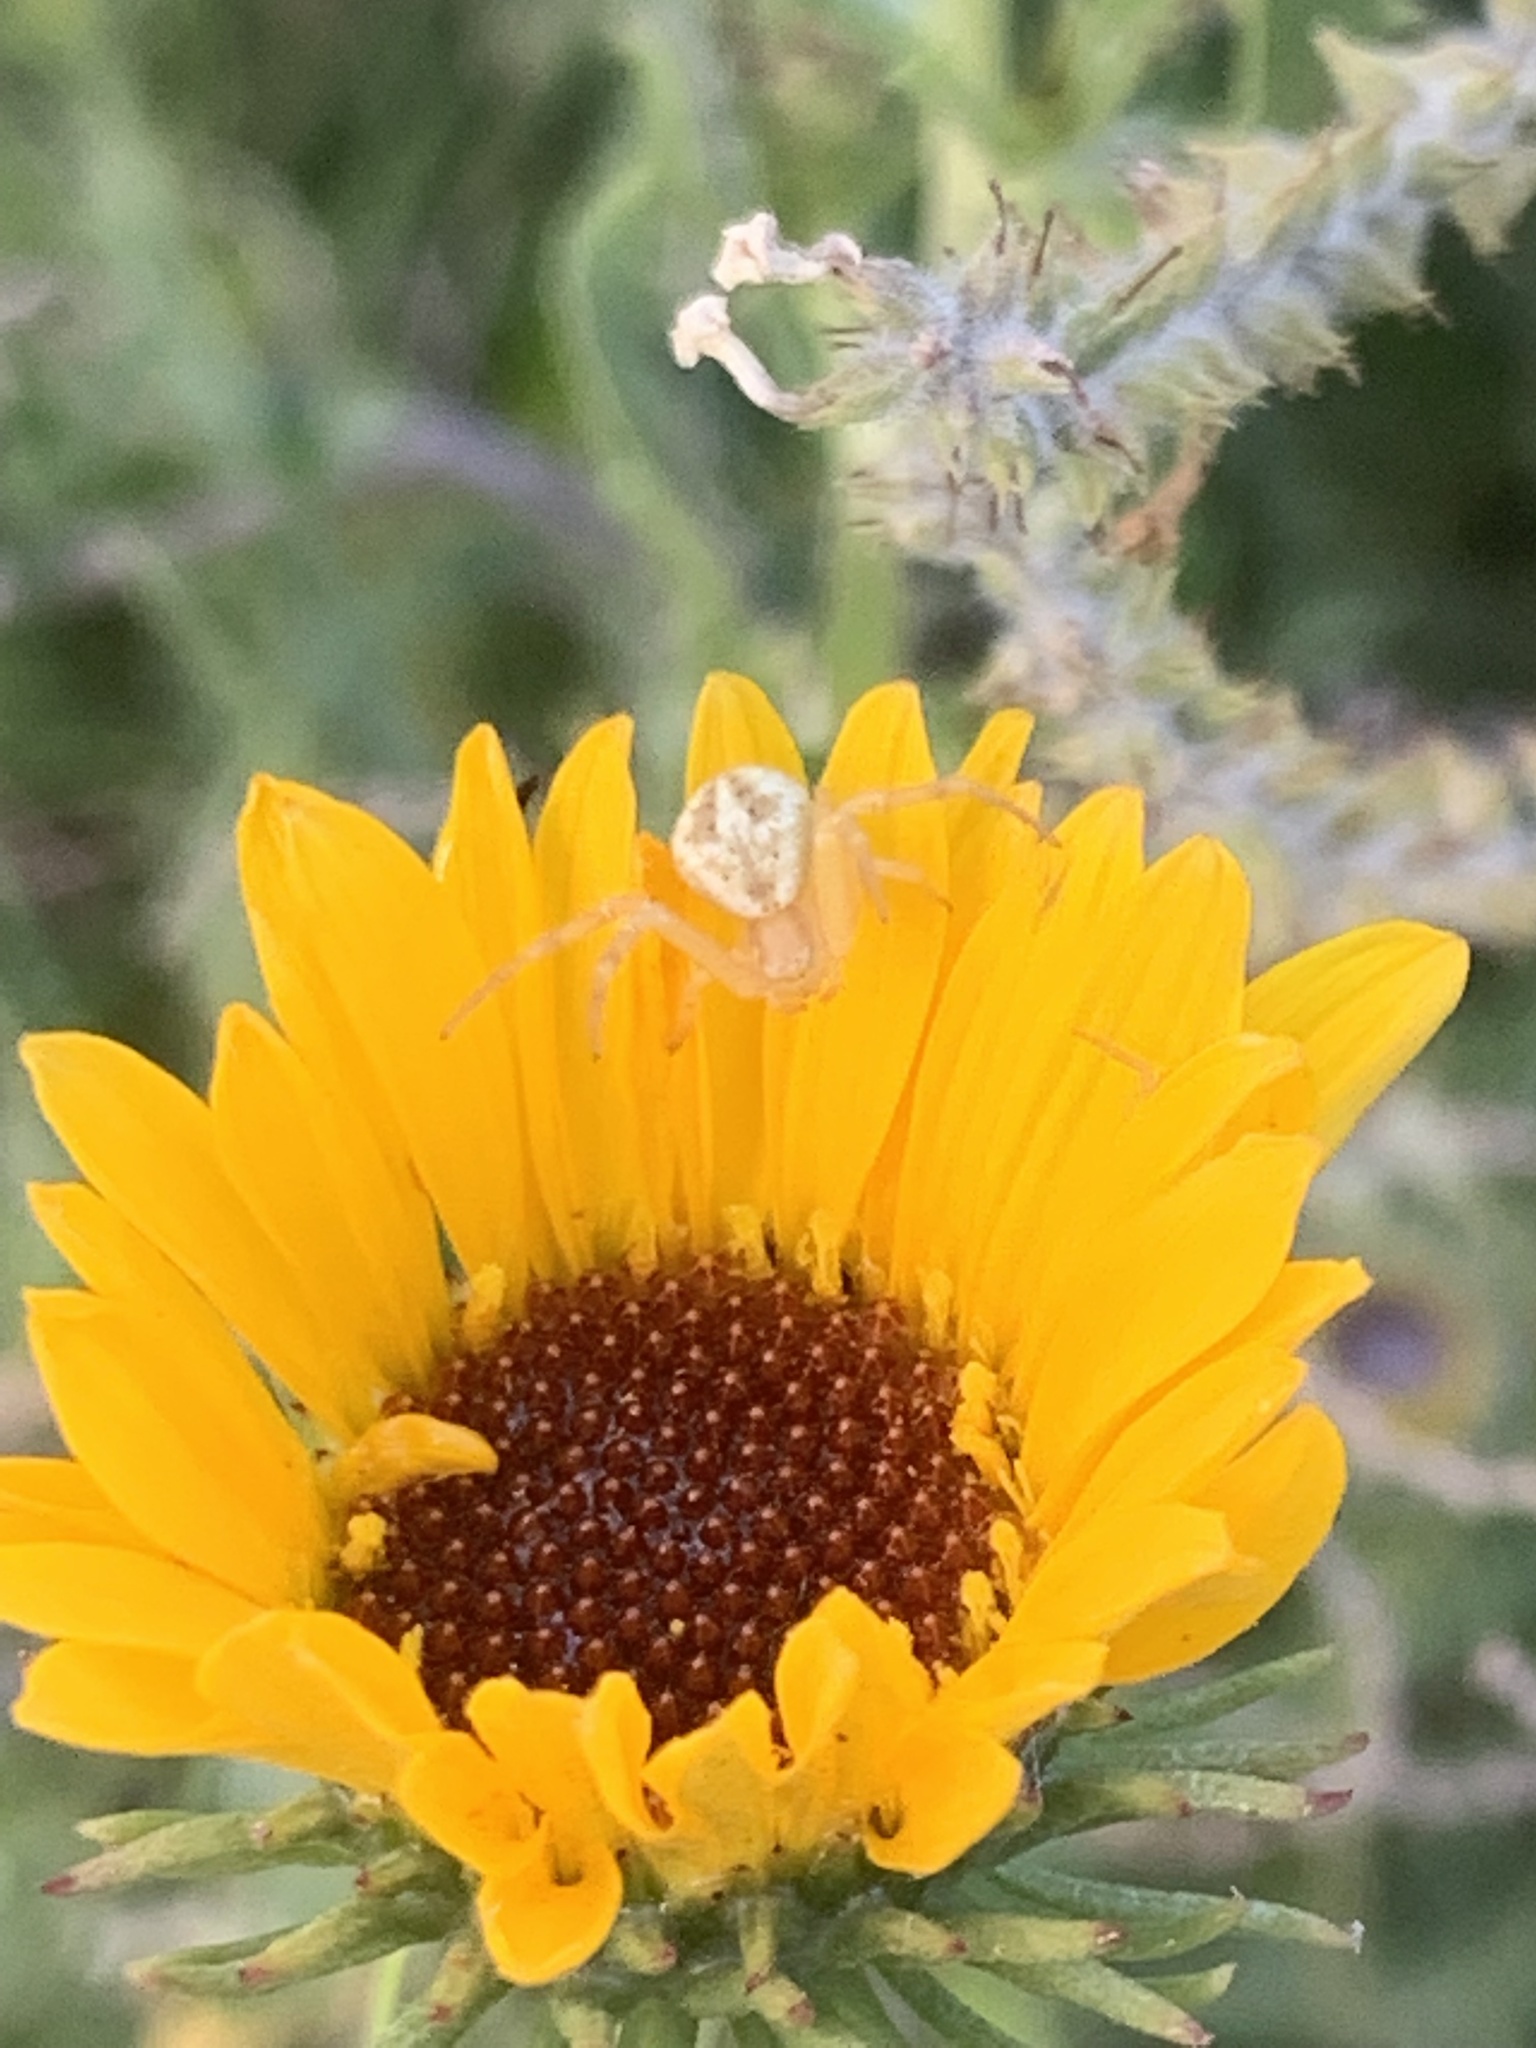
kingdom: Animalia
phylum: Arthropoda
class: Arachnida
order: Araneae
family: Thomisidae
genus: Misumenops
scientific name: Misumenops
